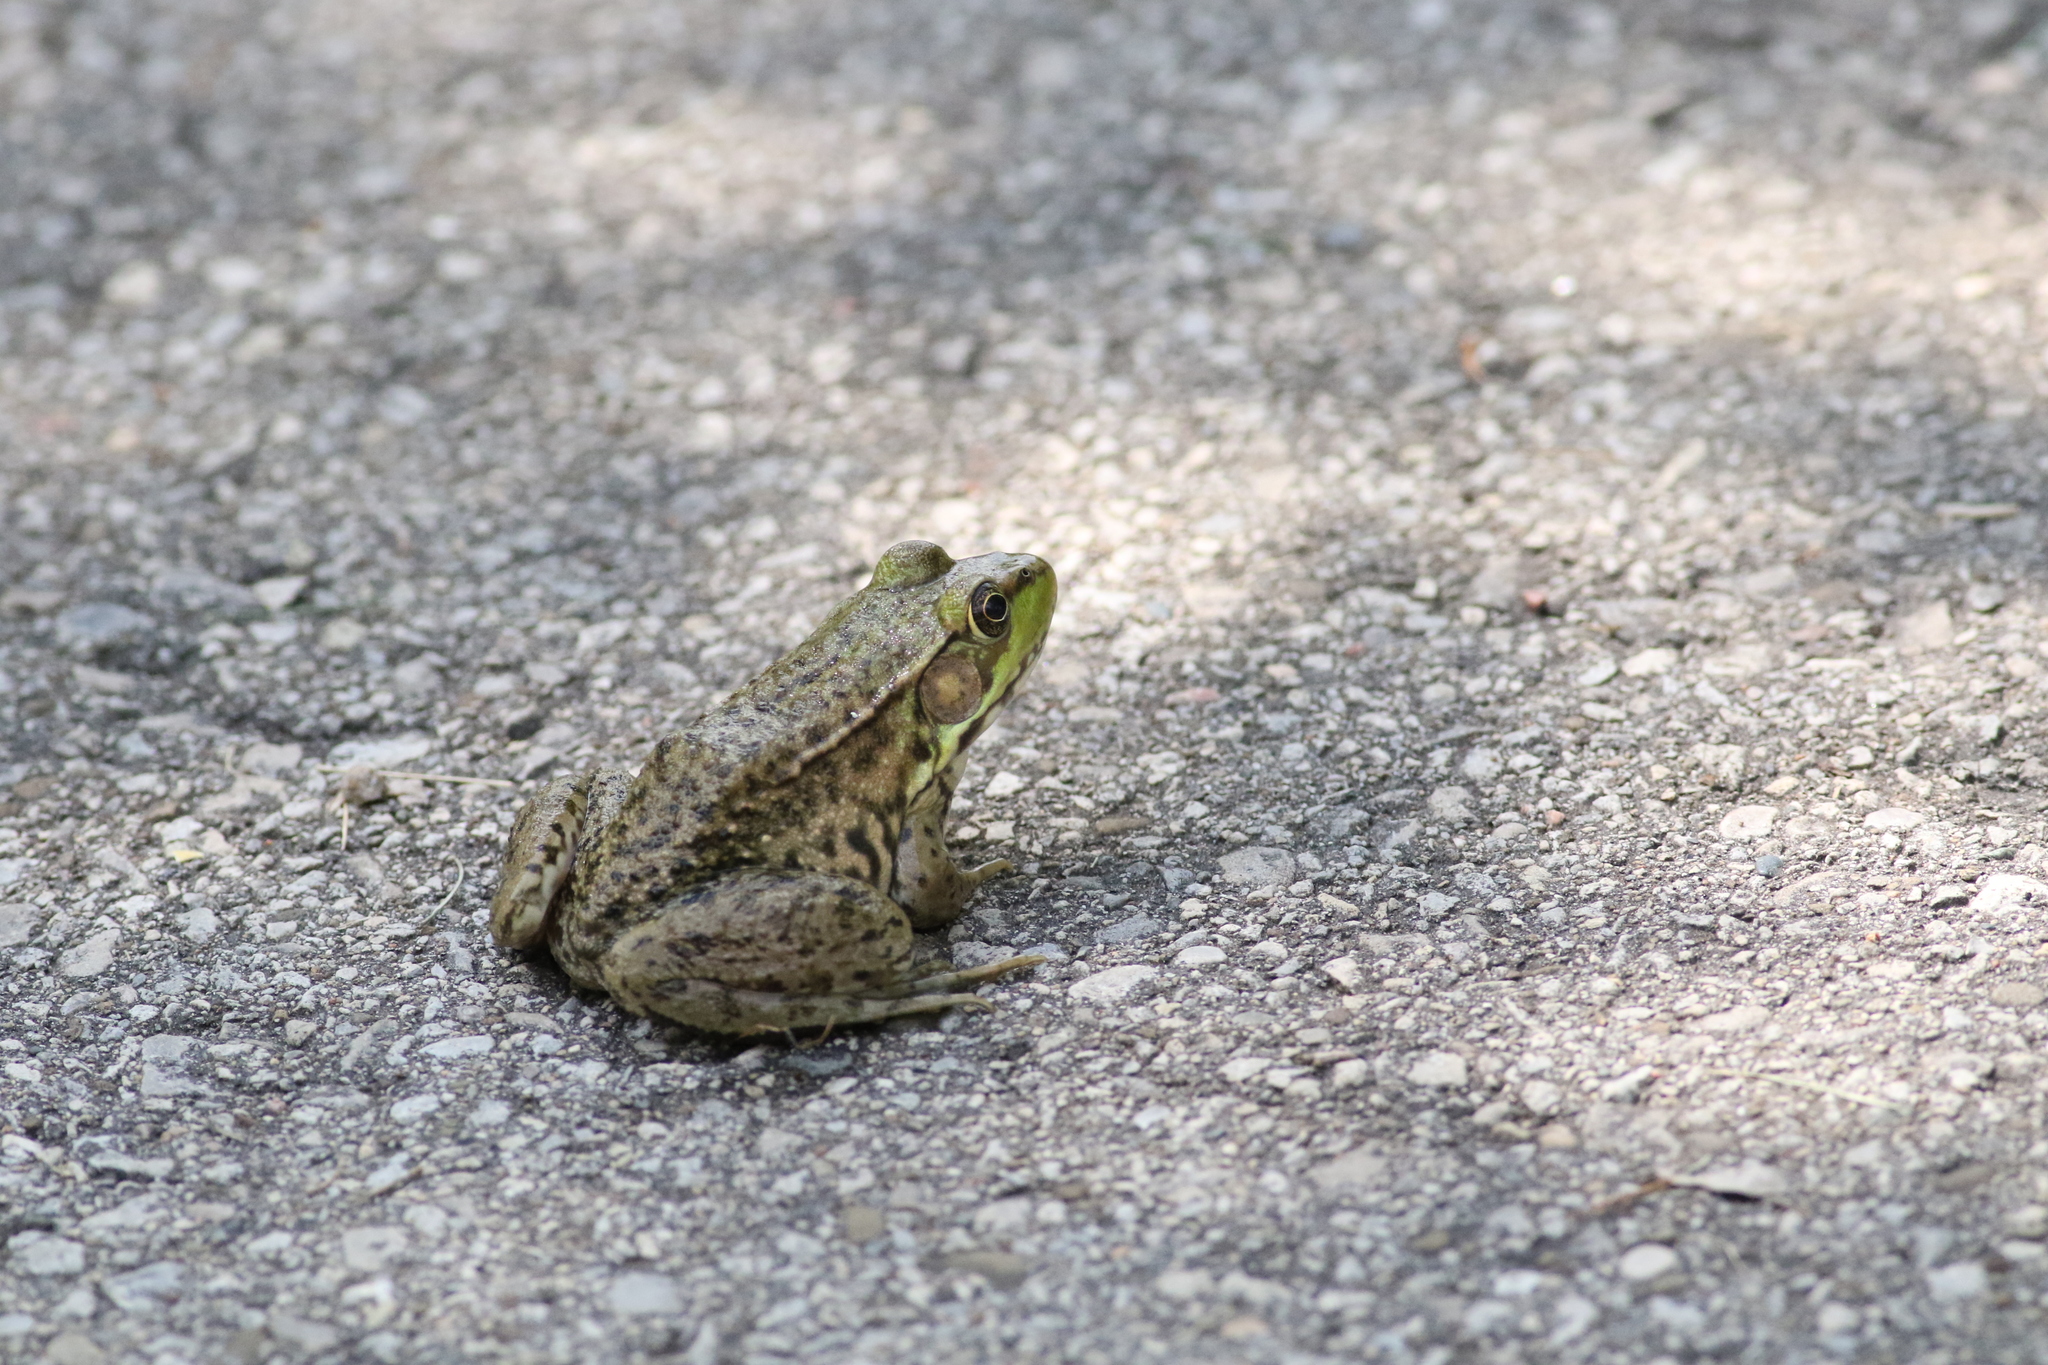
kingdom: Animalia
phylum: Chordata
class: Amphibia
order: Anura
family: Ranidae
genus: Lithobates
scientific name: Lithobates clamitans
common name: Green frog
